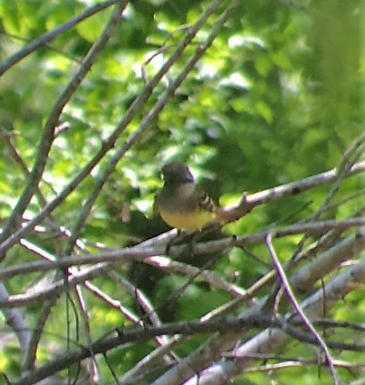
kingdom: Animalia
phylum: Chordata
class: Aves
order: Passeriformes
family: Tyrannidae
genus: Myiarchus
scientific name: Myiarchus crinitus
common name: Great crested flycatcher
